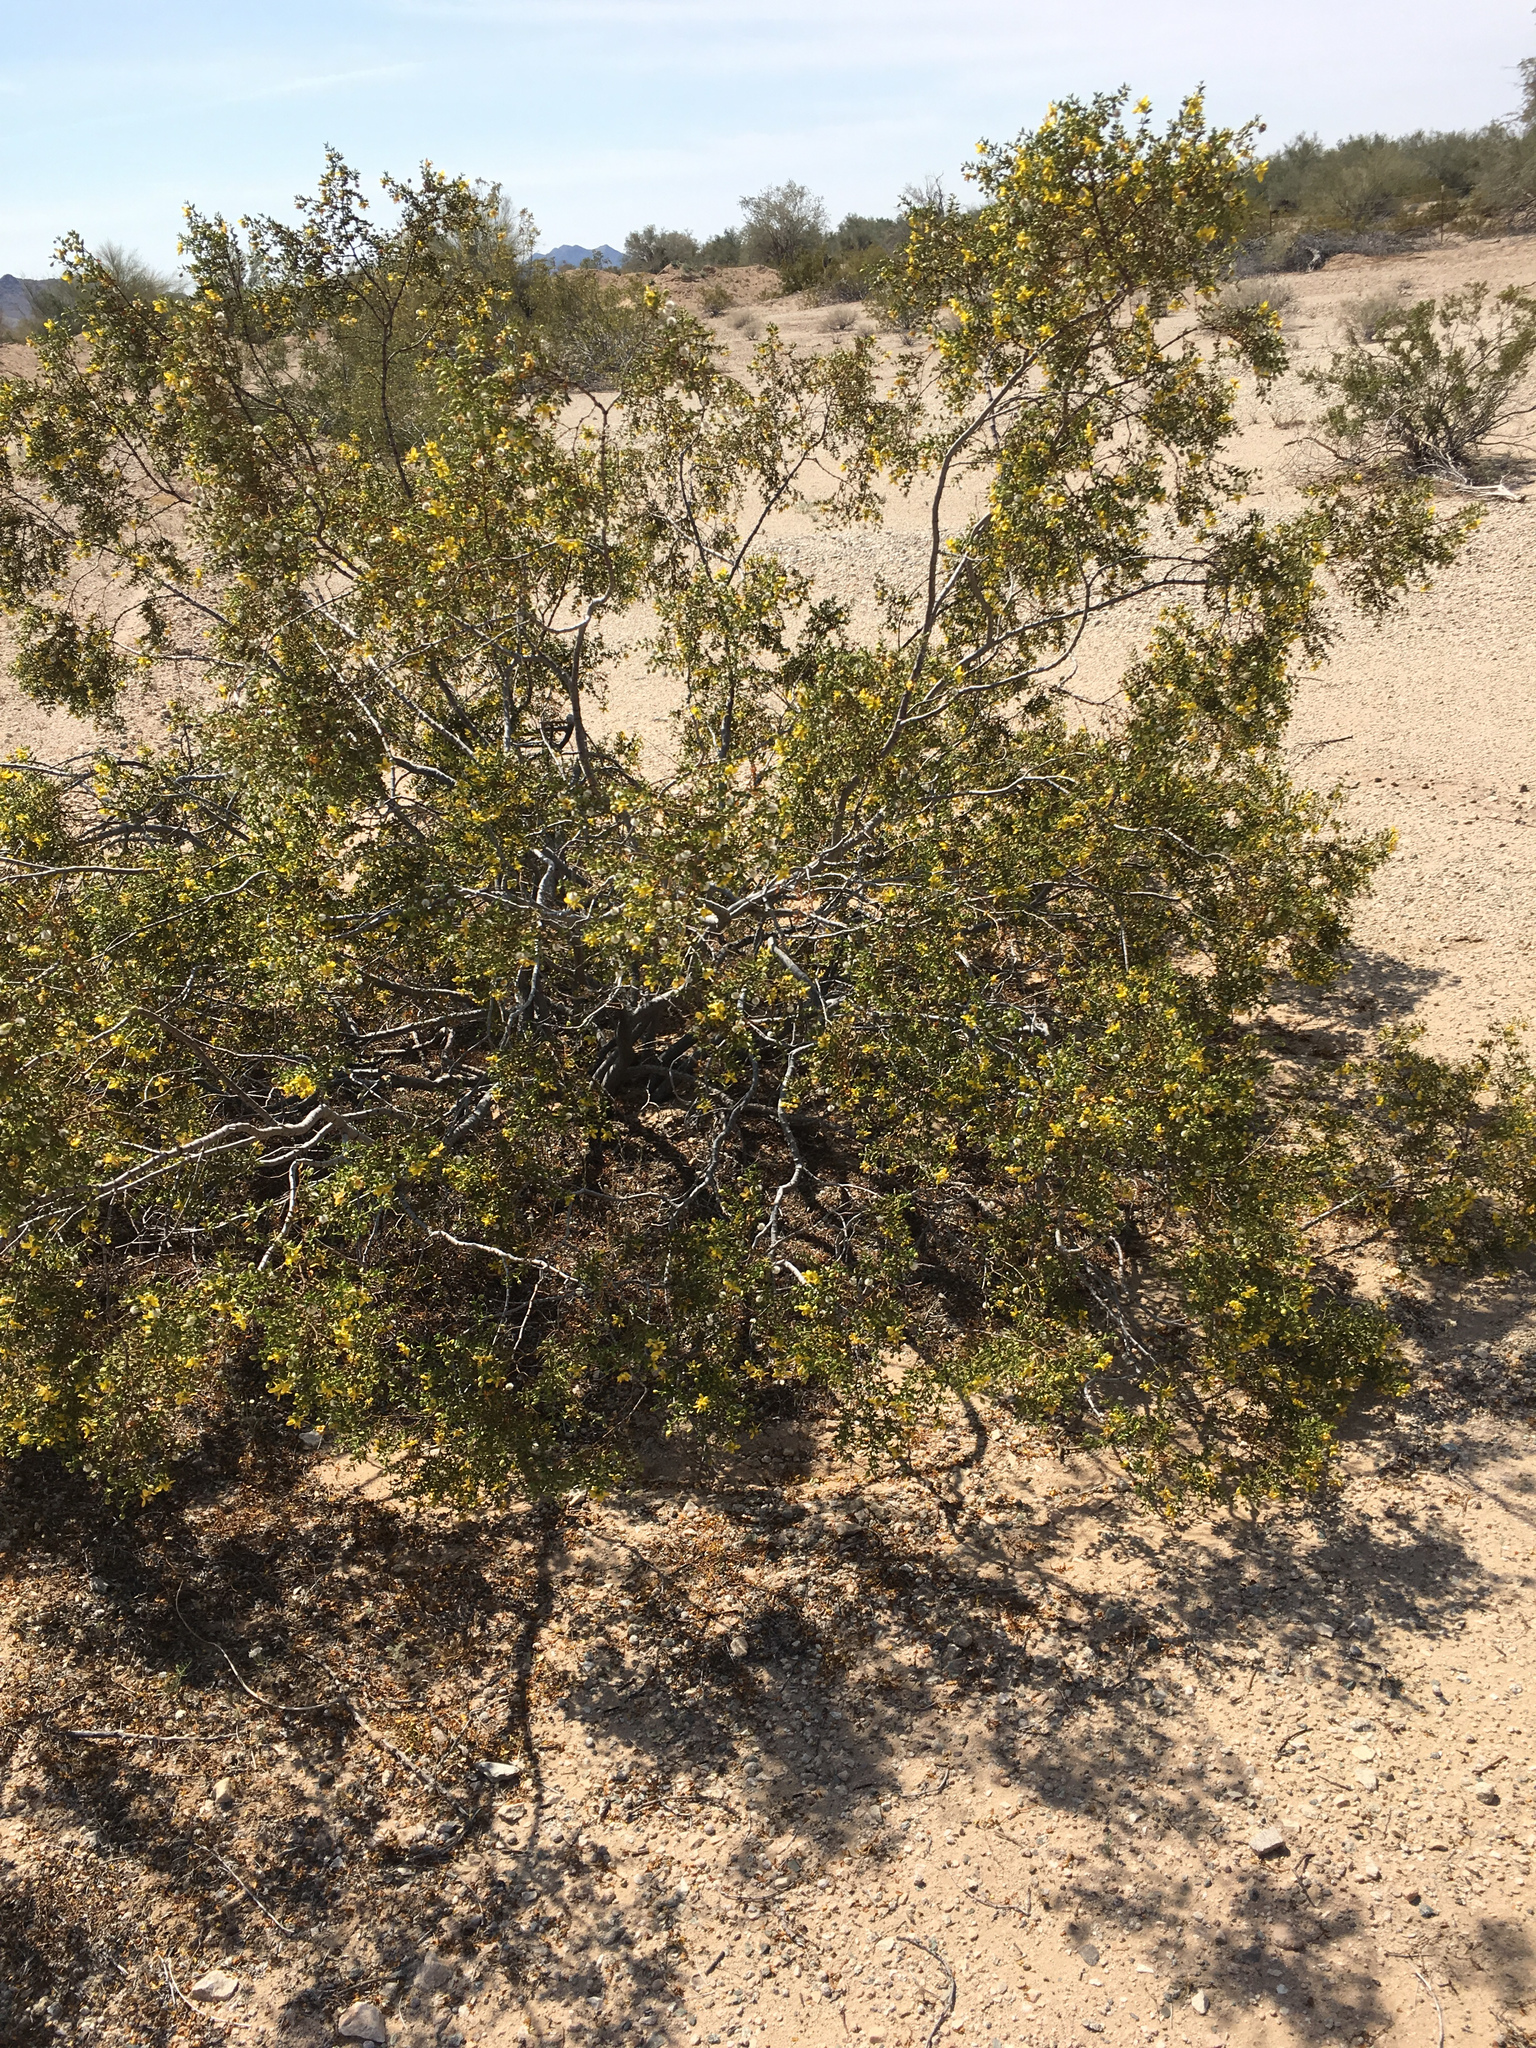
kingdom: Plantae
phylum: Tracheophyta
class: Magnoliopsida
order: Zygophyllales
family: Zygophyllaceae
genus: Larrea
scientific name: Larrea tridentata
